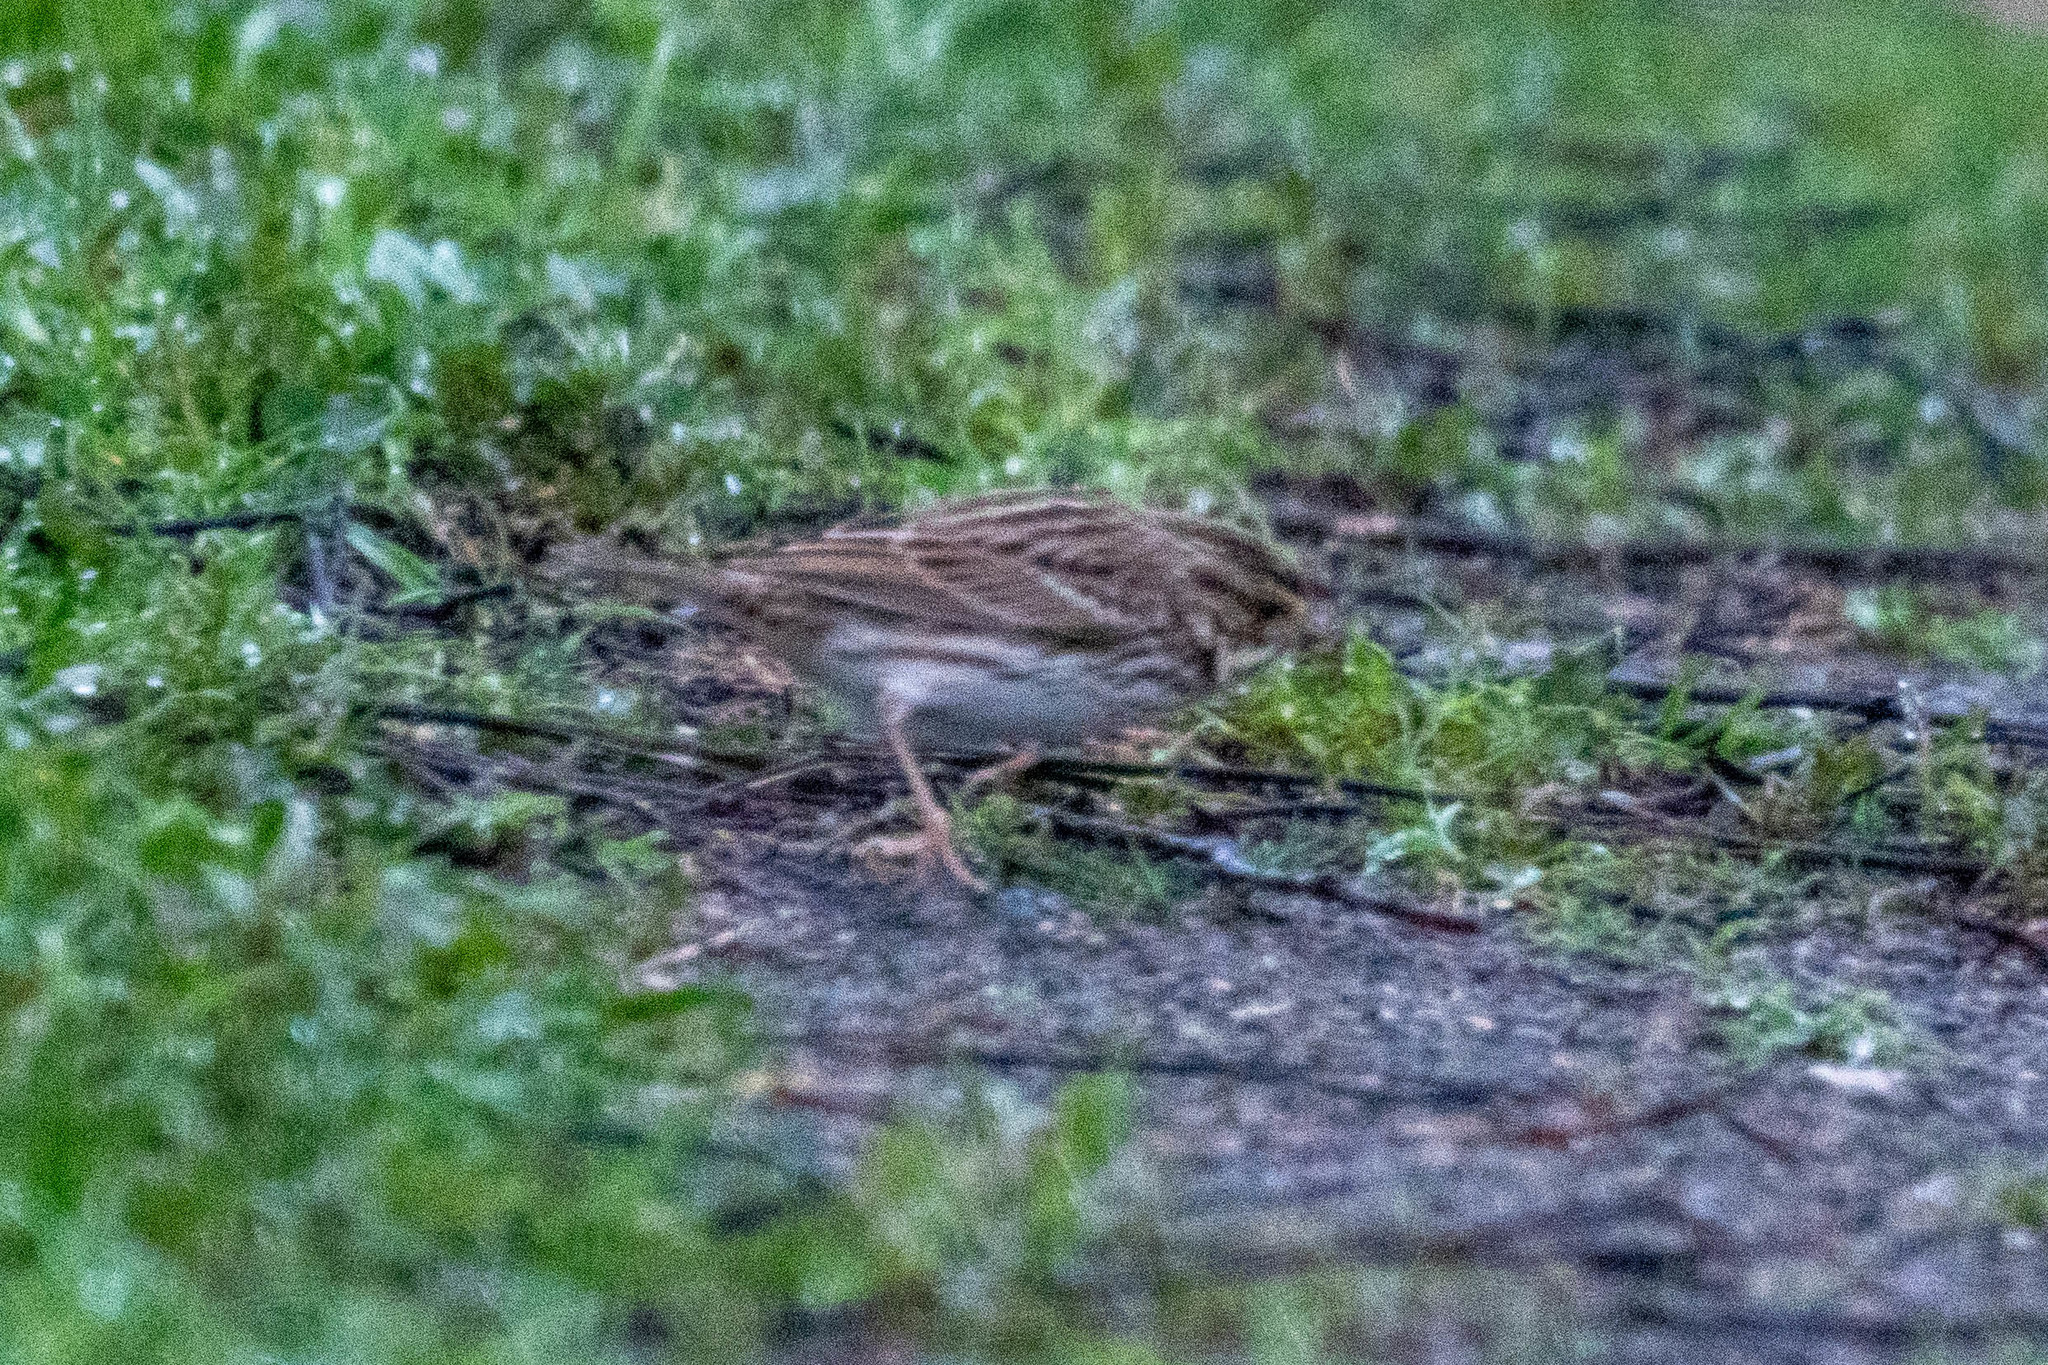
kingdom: Animalia
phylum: Chordata
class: Aves
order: Passeriformes
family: Passerellidae
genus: Passerculus
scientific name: Passerculus sandwichensis
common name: Savannah sparrow
